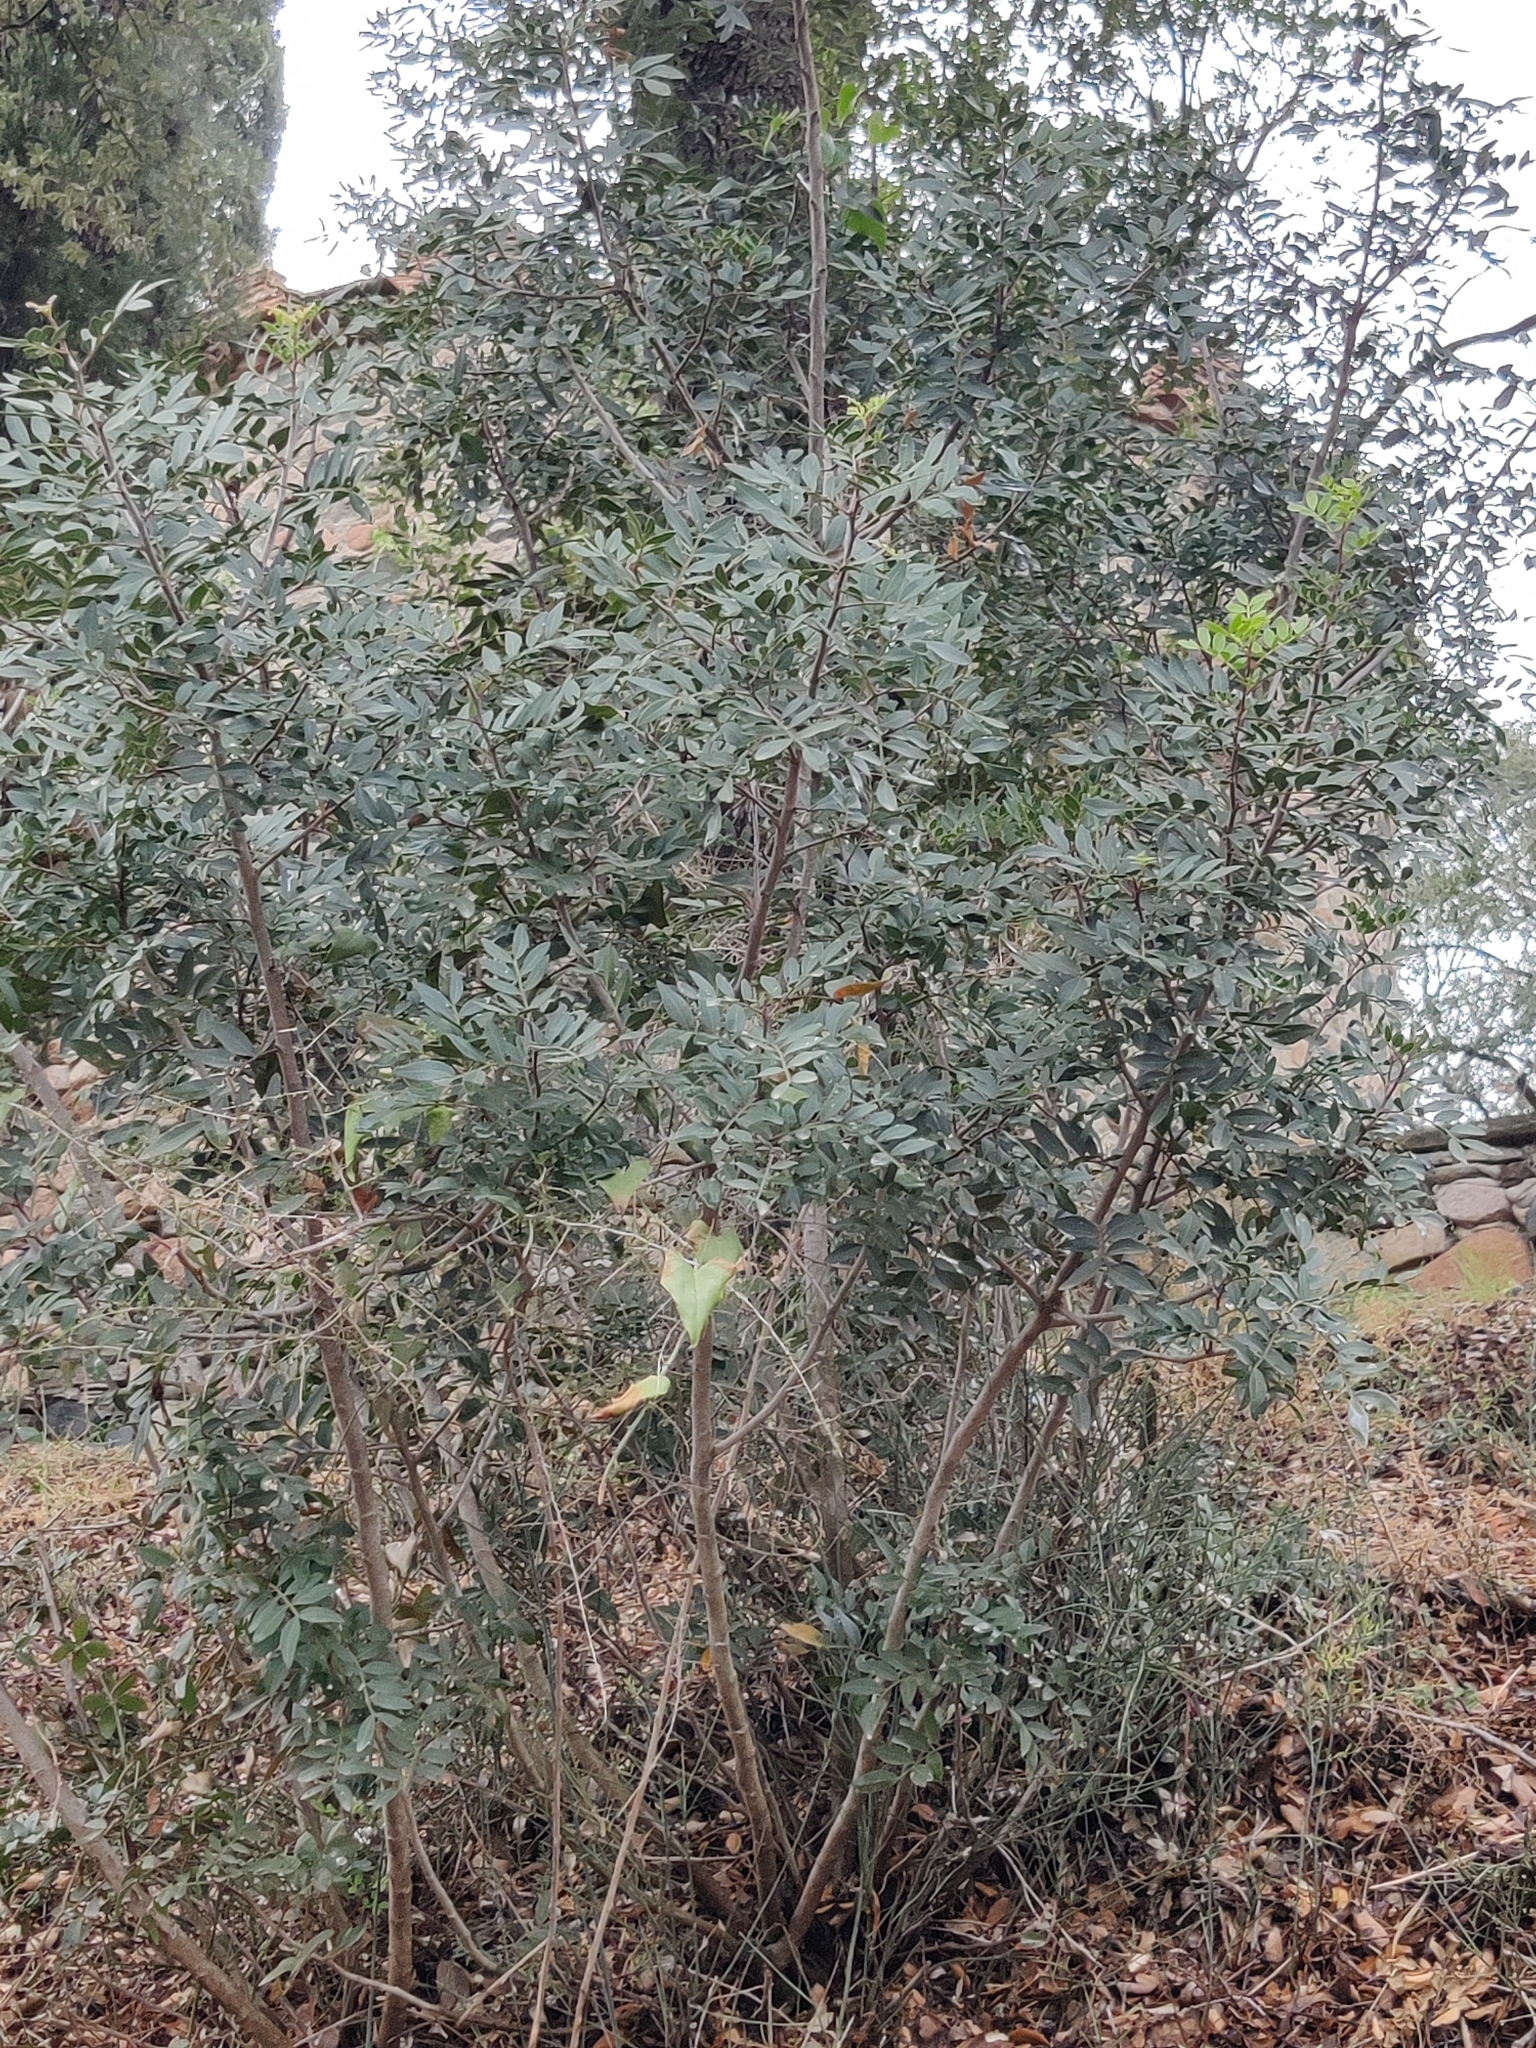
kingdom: Plantae
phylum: Tracheophyta
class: Magnoliopsida
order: Sapindales
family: Anacardiaceae
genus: Pistacia
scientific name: Pistacia lentiscus
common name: Lentisk
